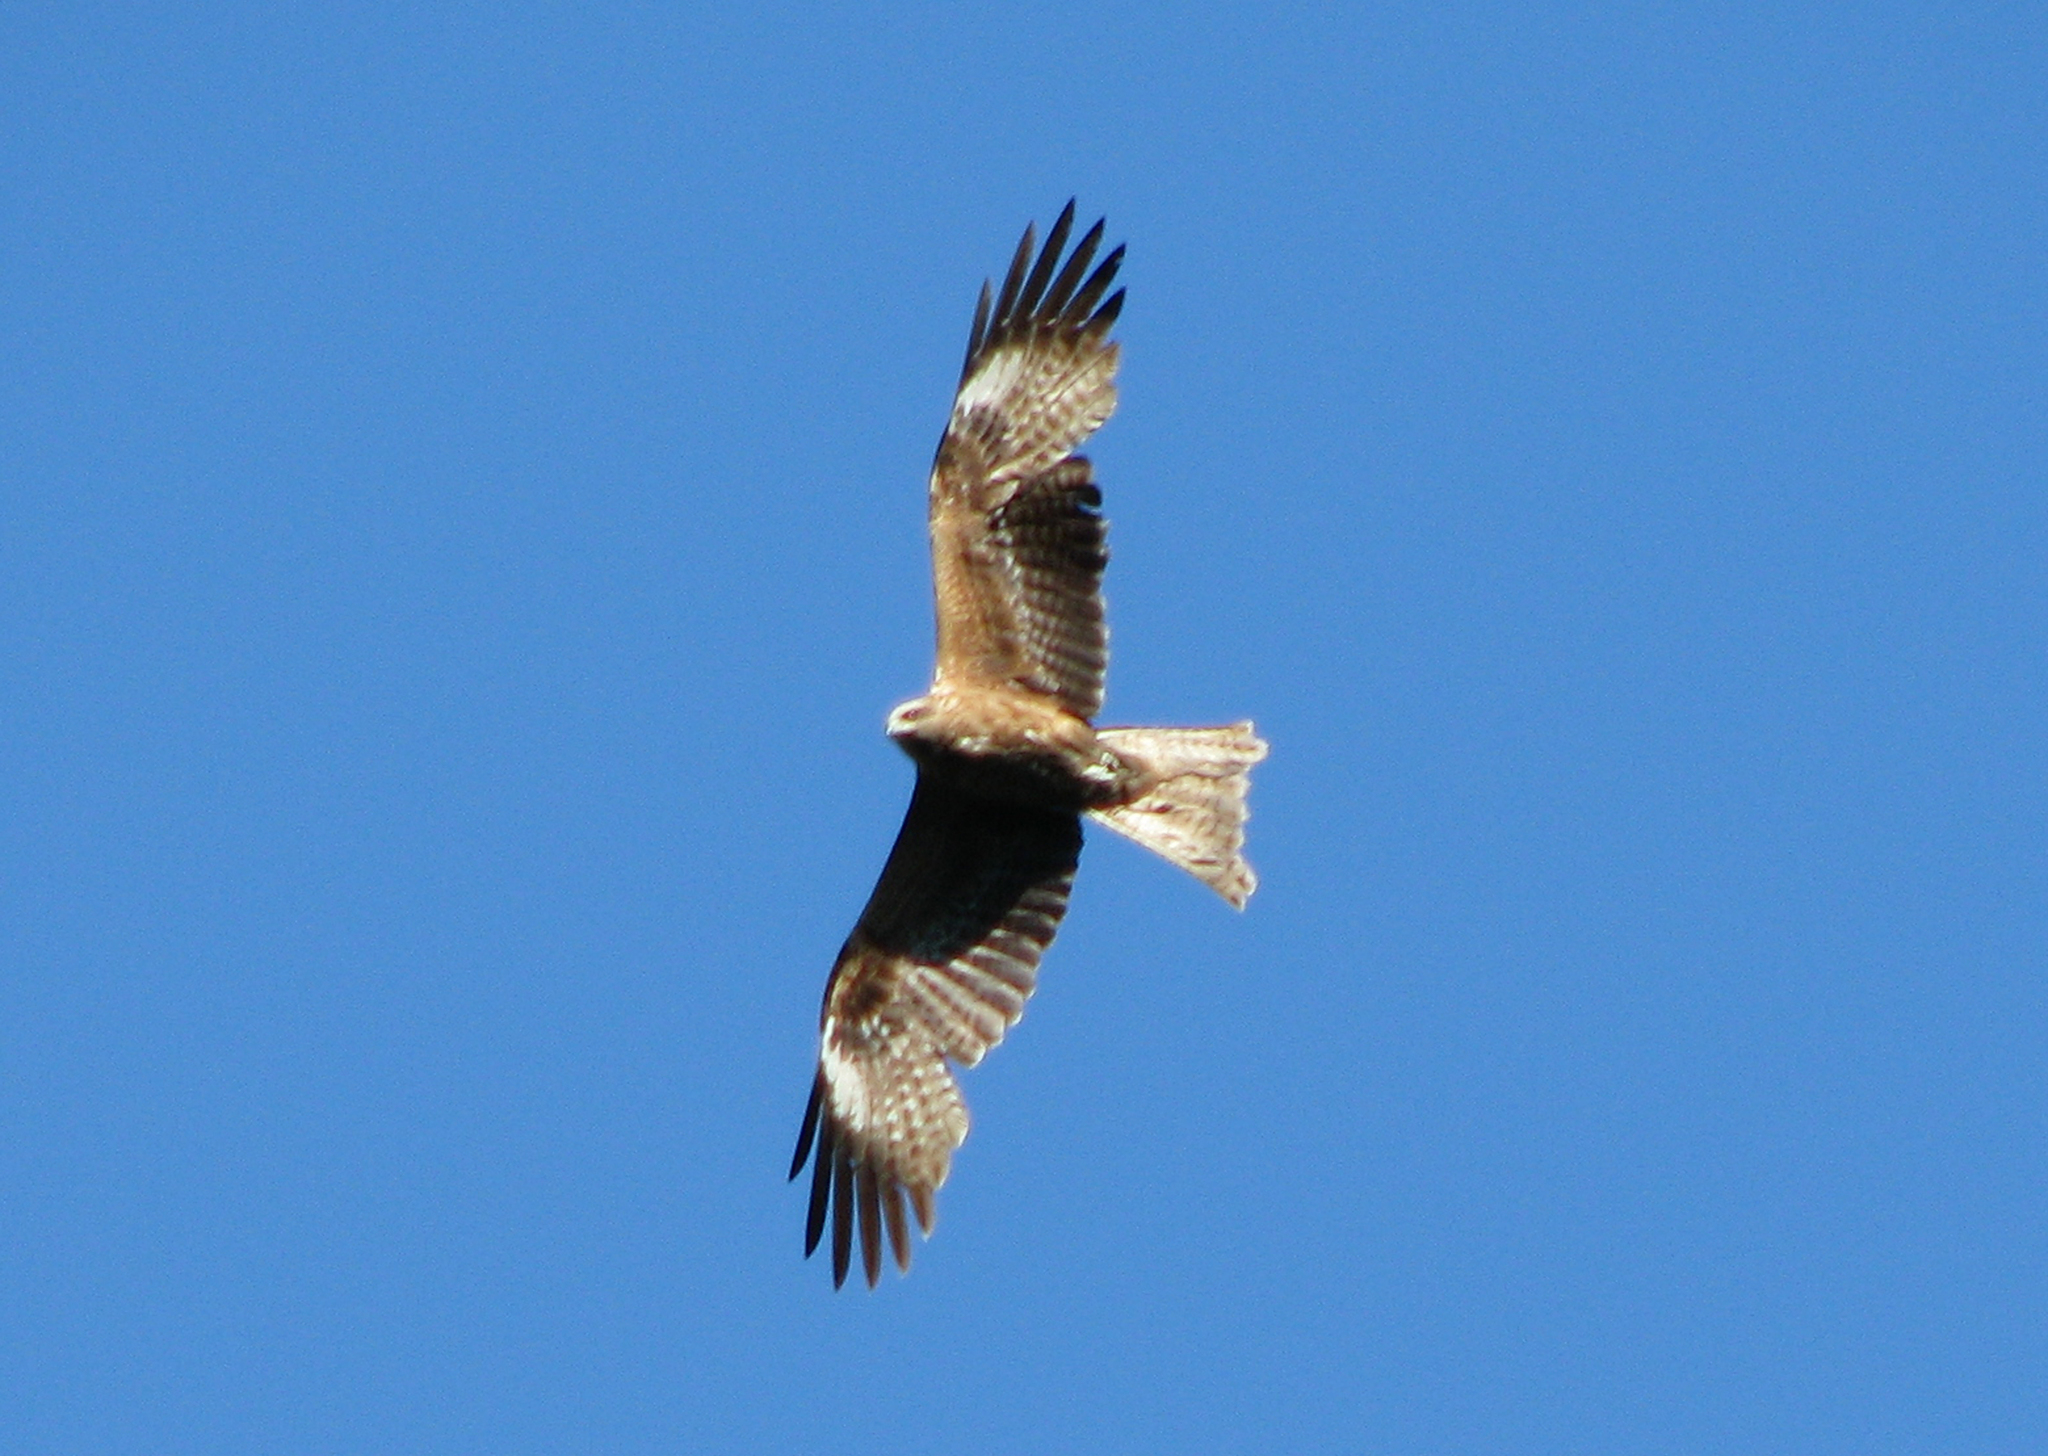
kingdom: Animalia
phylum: Chordata
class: Aves
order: Accipitriformes
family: Accipitridae
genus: Milvus
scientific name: Milvus migrans
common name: Black kite
